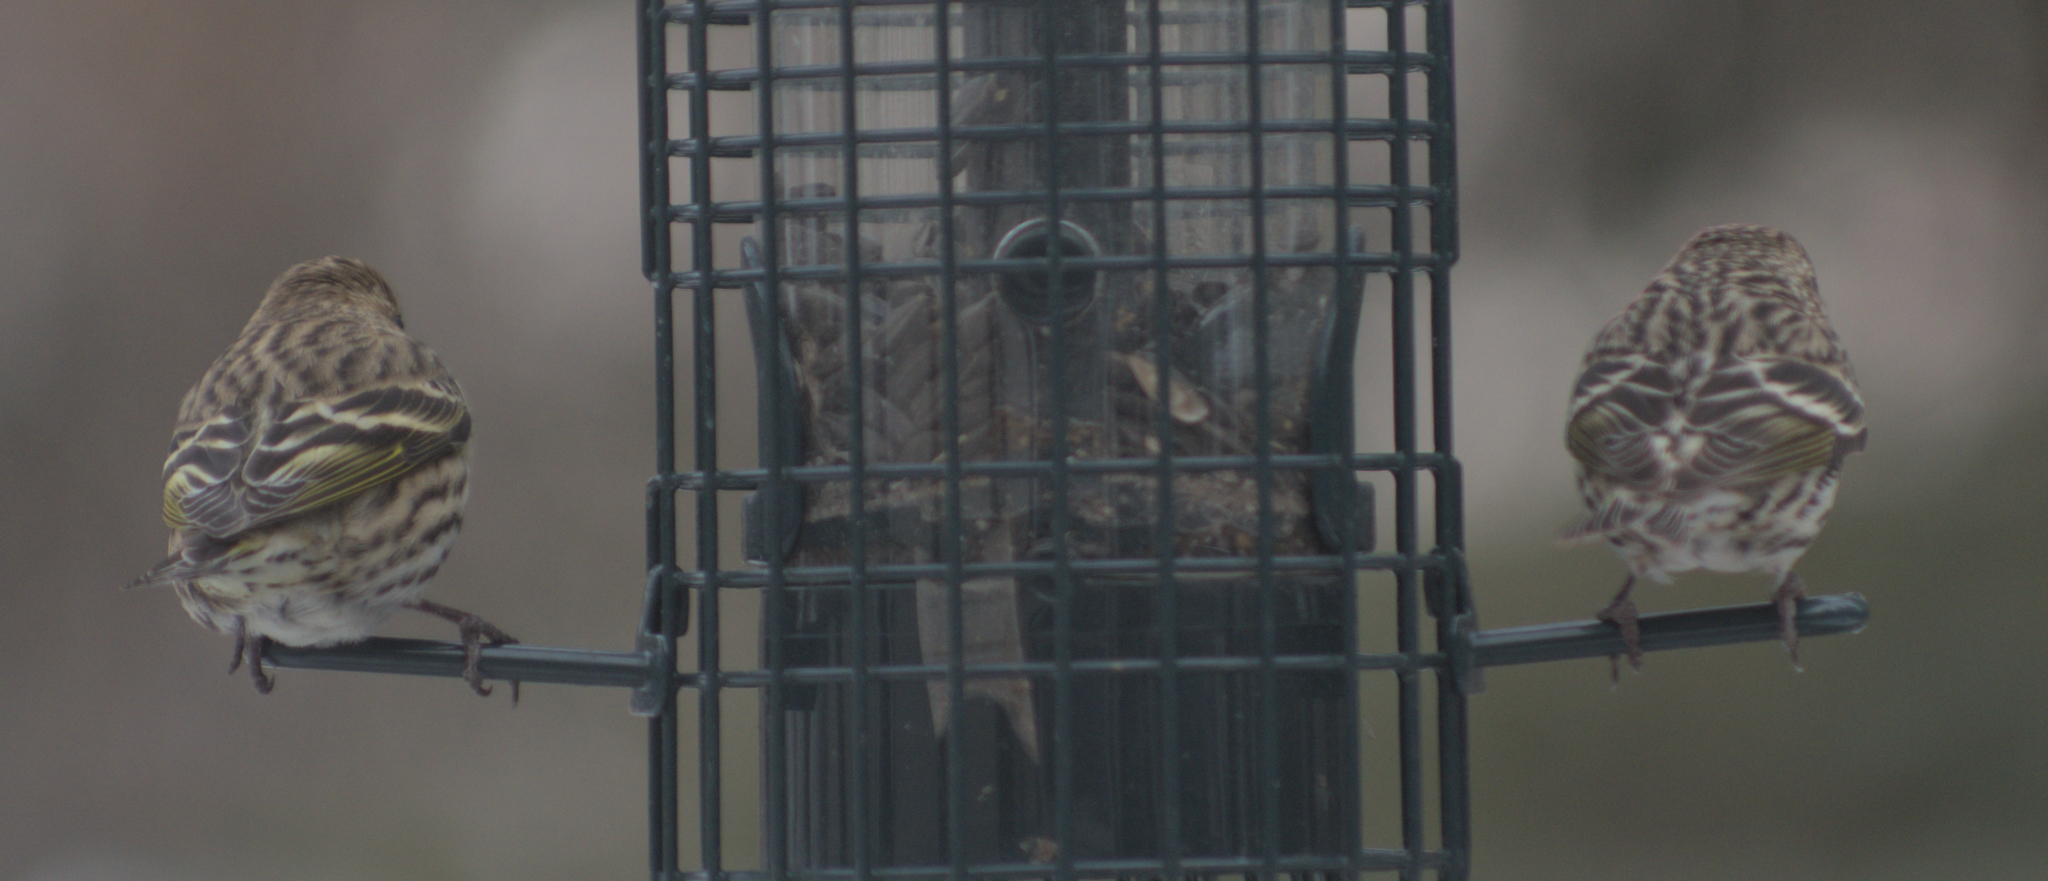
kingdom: Animalia
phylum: Chordata
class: Aves
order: Passeriformes
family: Fringillidae
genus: Spinus
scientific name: Spinus pinus
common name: Pine siskin
